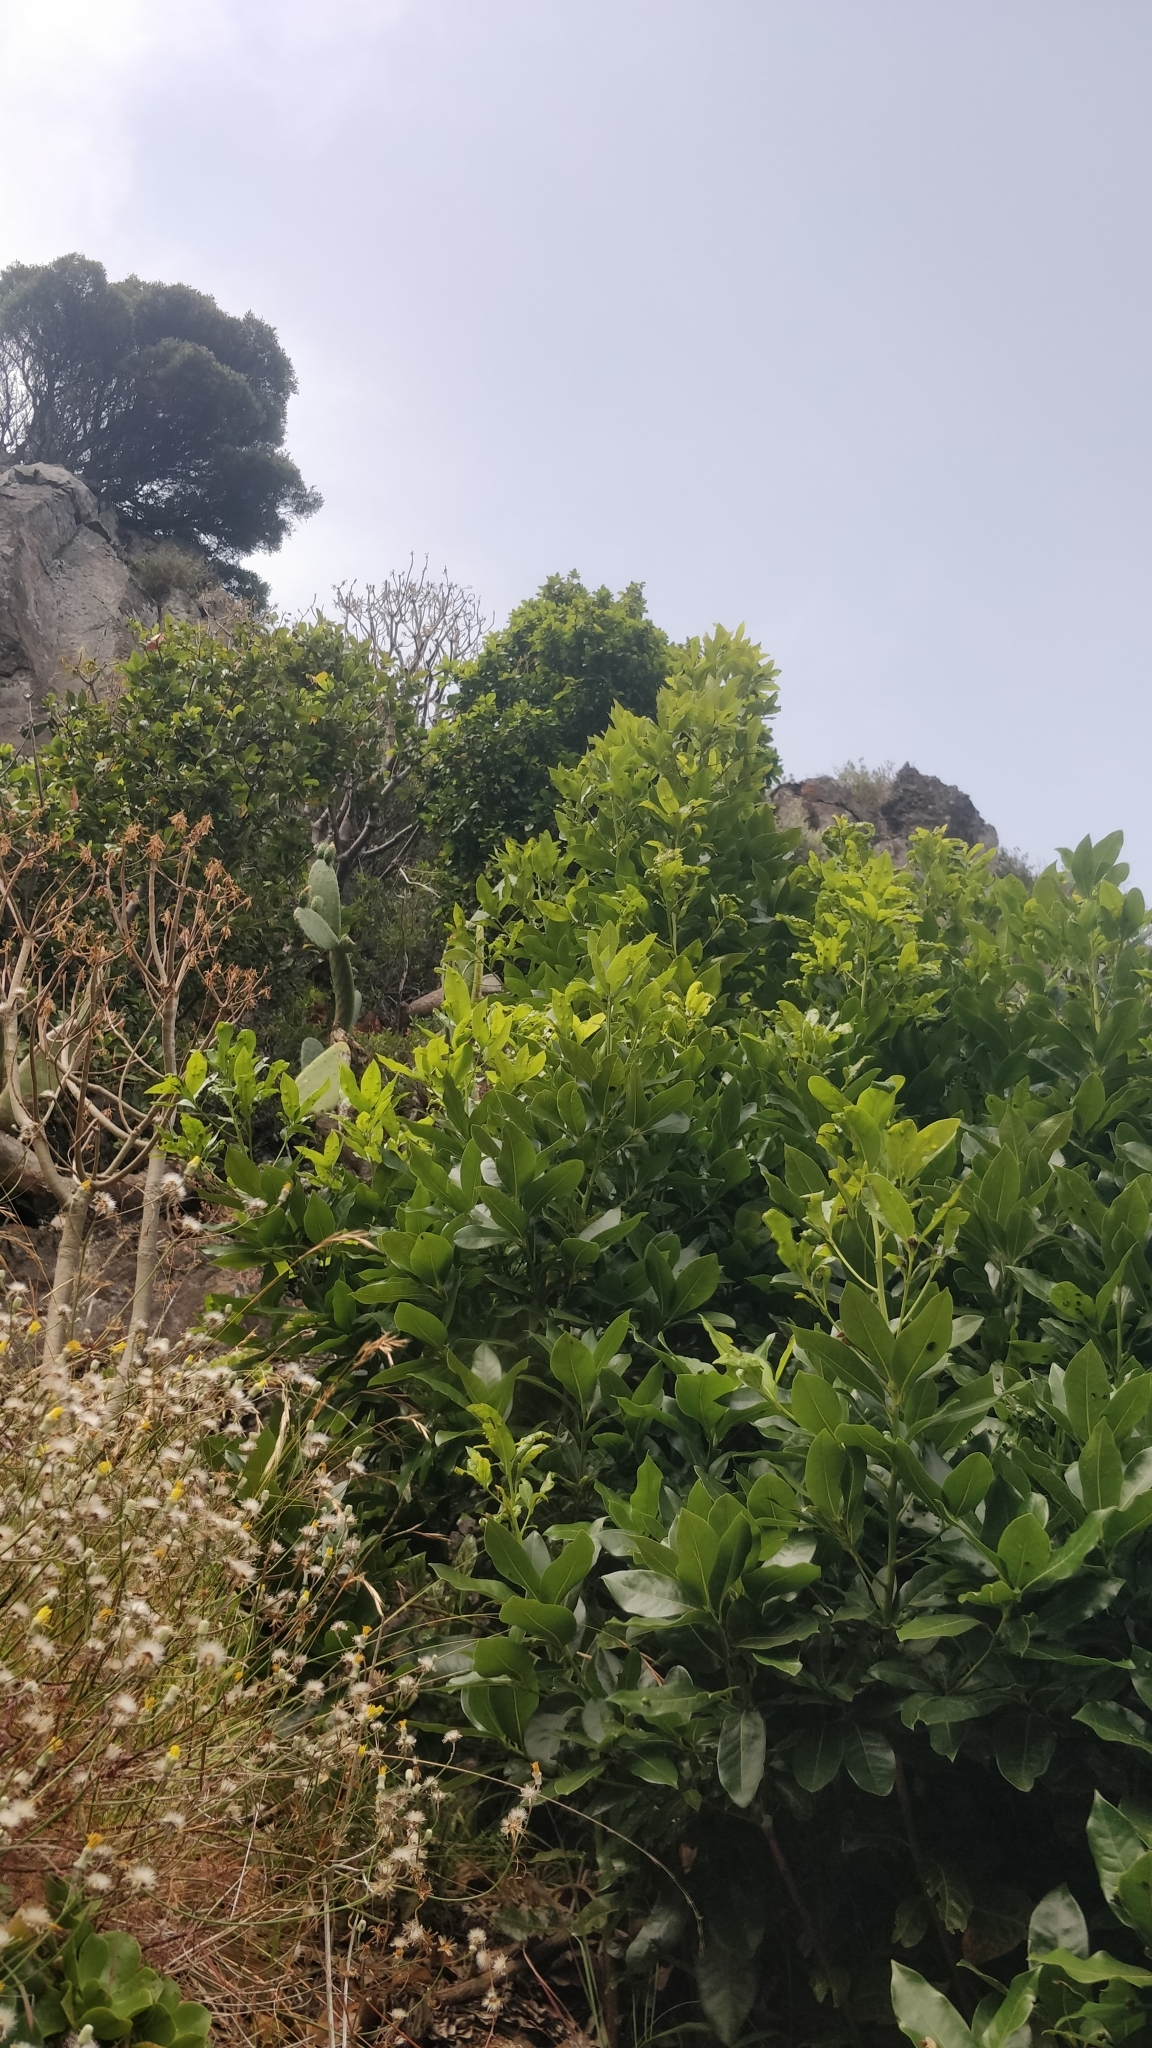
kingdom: Plantae
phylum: Tracheophyta
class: Magnoliopsida
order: Laurales
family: Lauraceae
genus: Apollonias
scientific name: Apollonias barbujana
